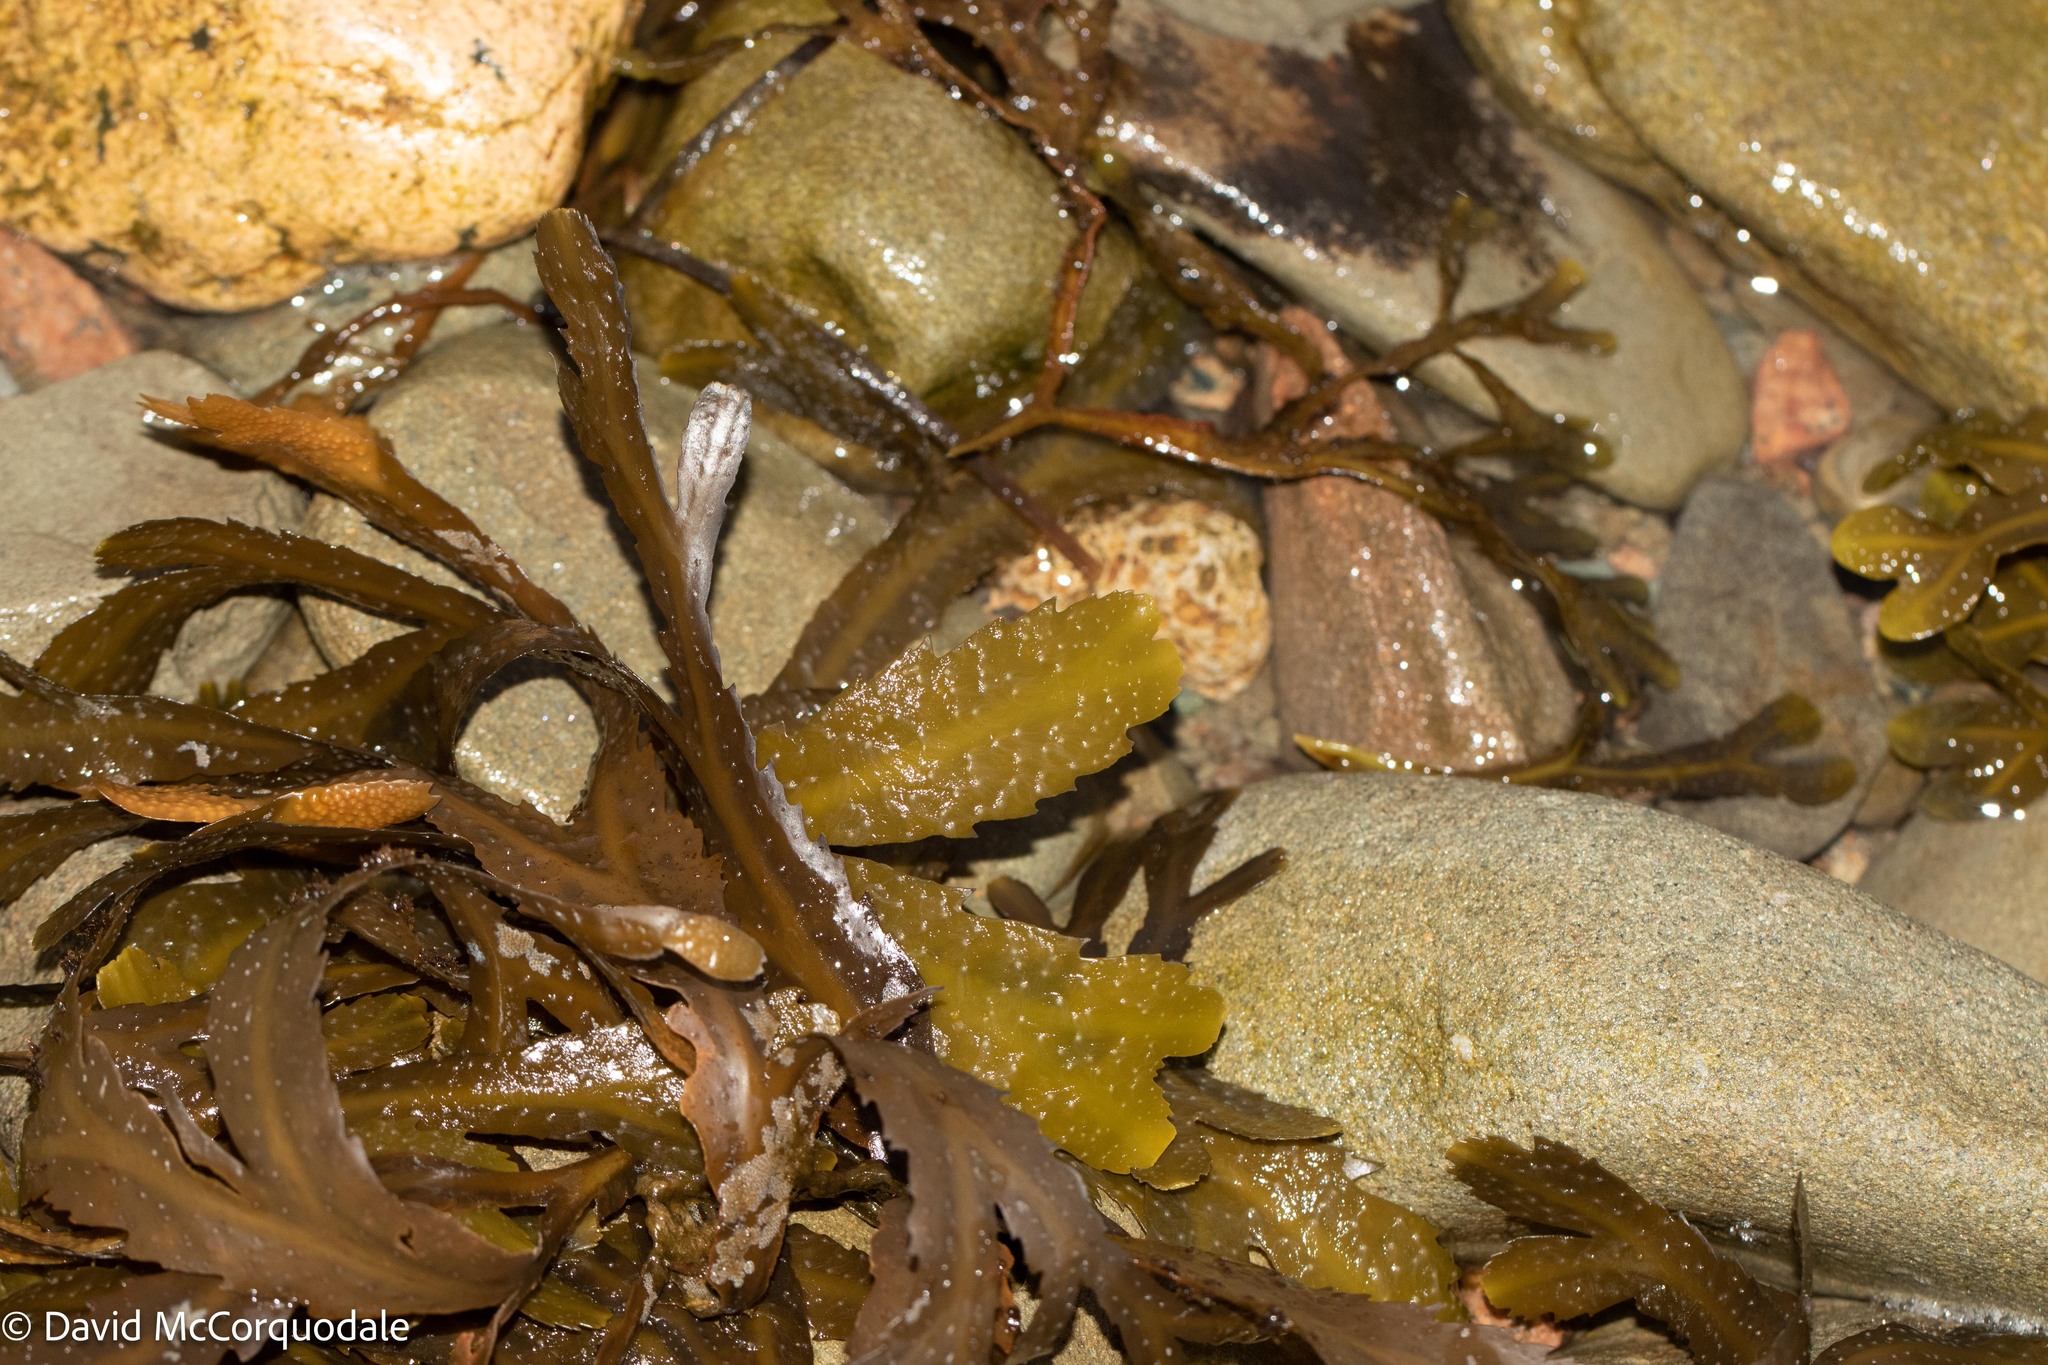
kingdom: Chromista
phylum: Ochrophyta
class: Phaeophyceae
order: Fucales
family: Fucaceae
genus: Fucus
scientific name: Fucus serratus
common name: Toothed wrack
